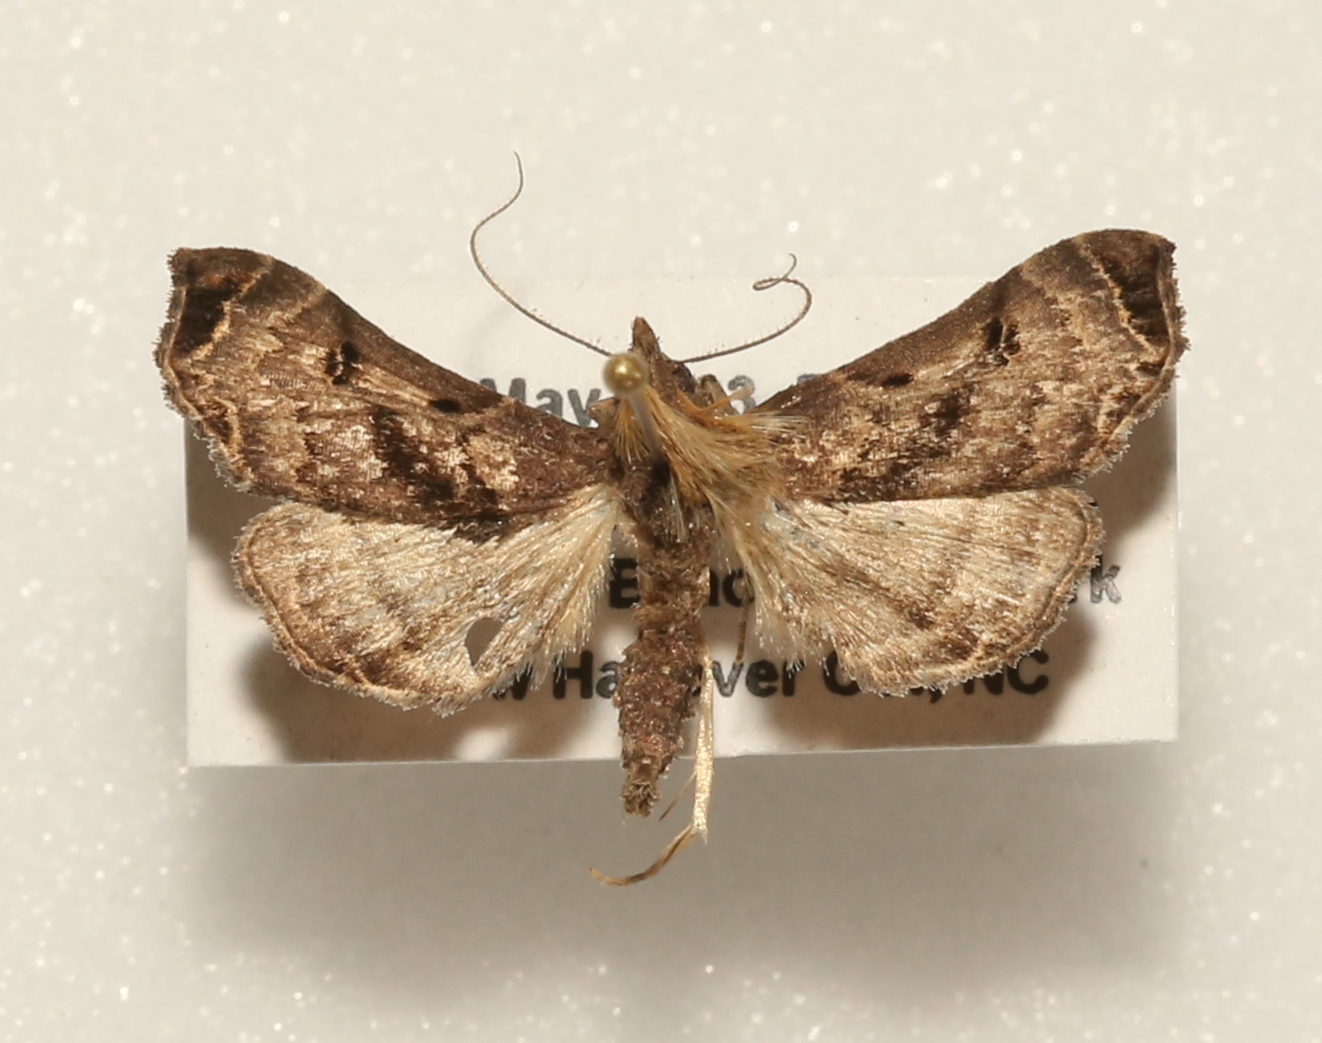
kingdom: Animalia
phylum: Arthropoda
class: Insecta
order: Lepidoptera
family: Erebidae
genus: Palthis
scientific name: Palthis asopialis
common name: Faint-spotted palthis moth
